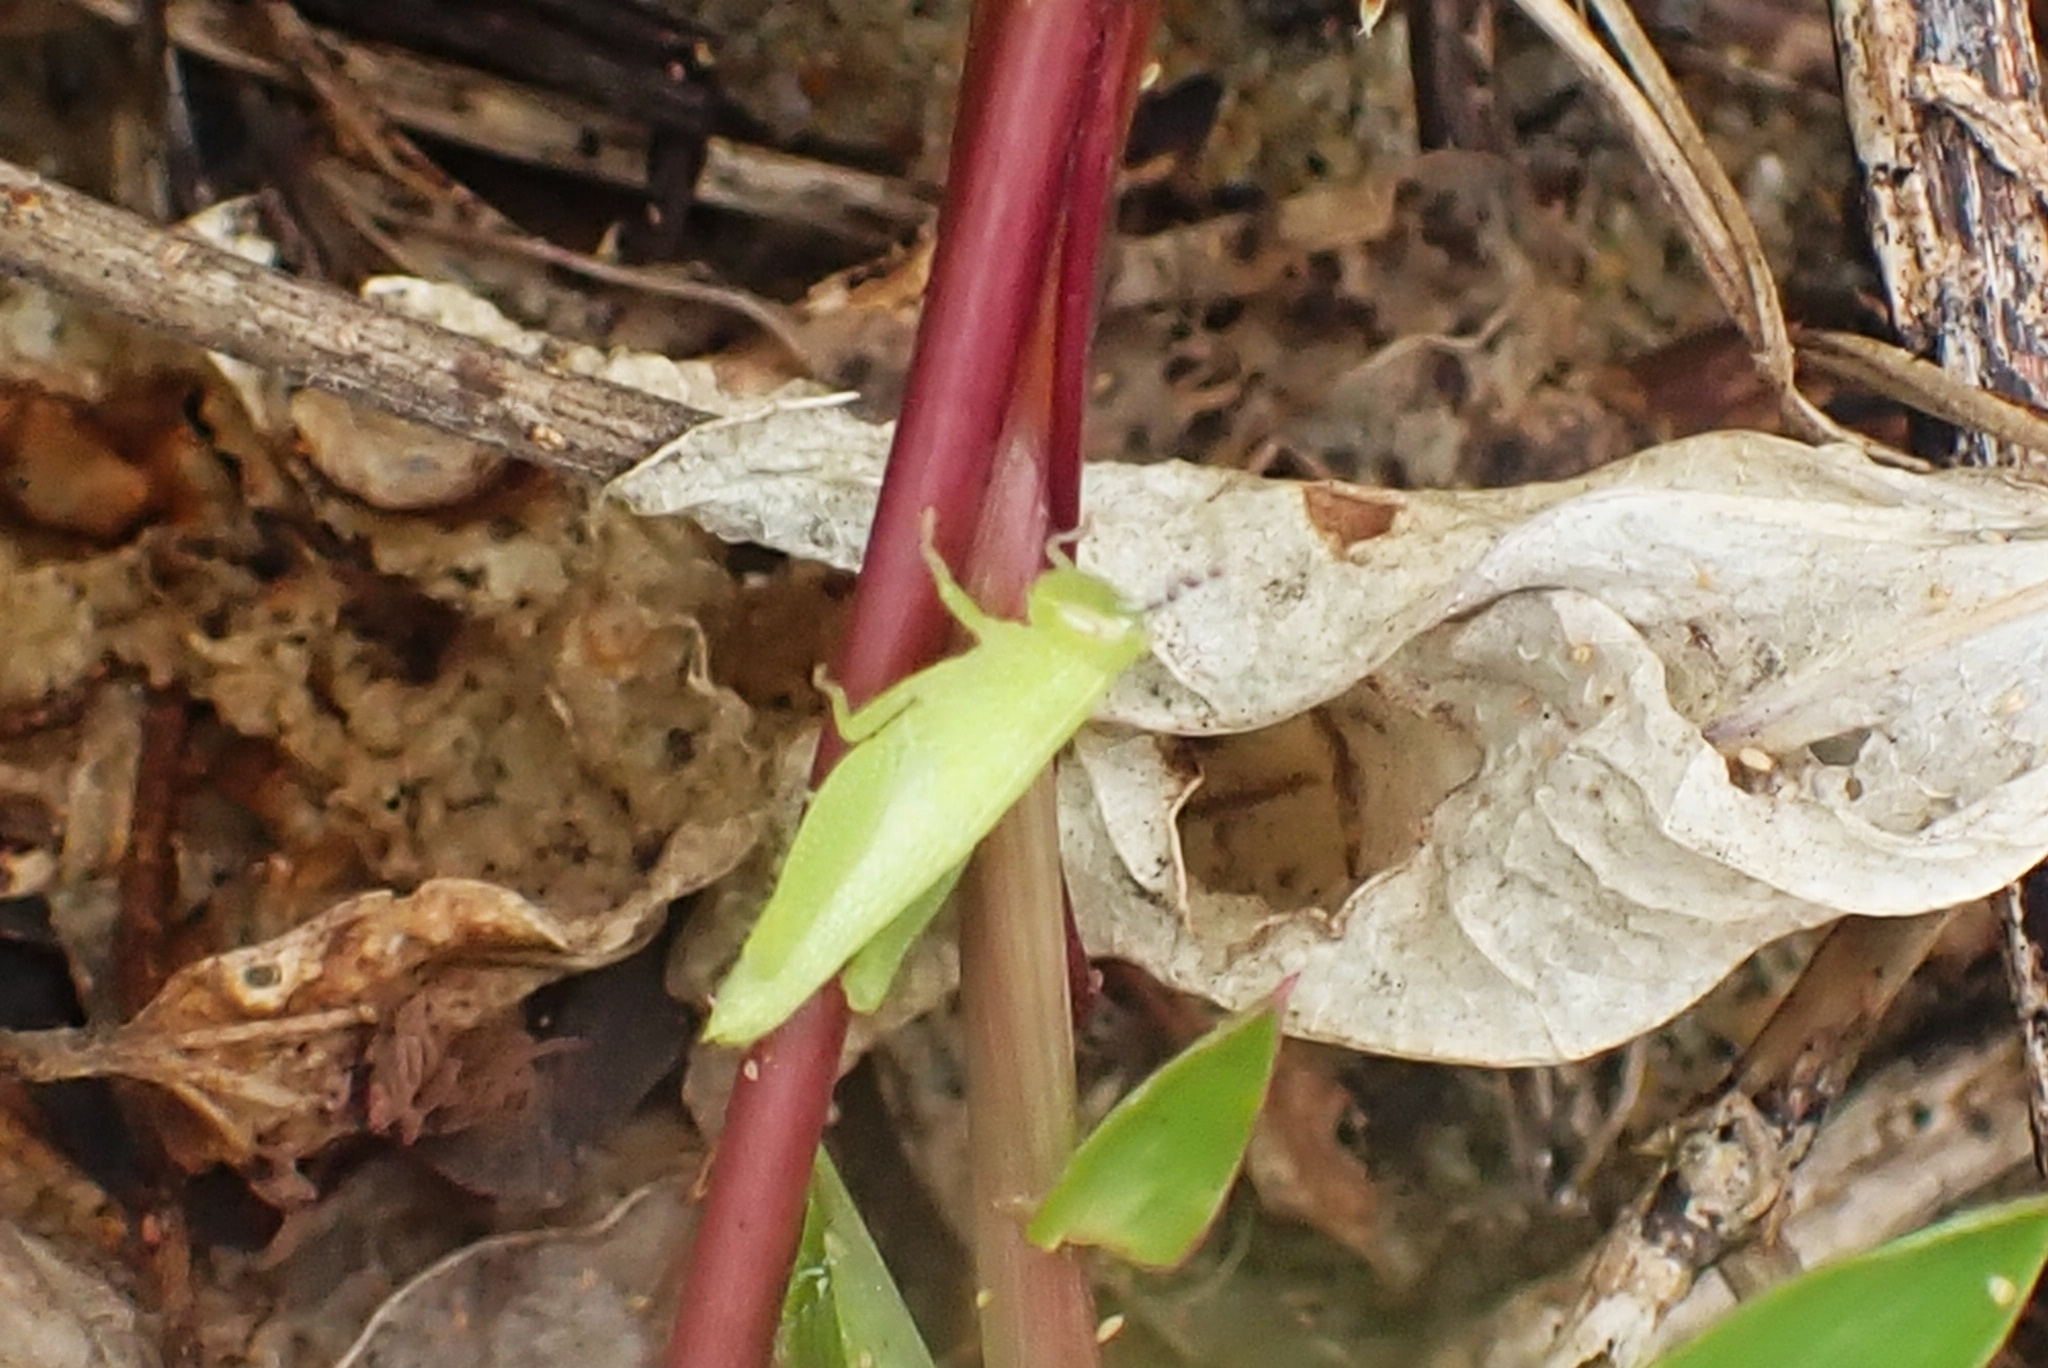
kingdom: Animalia
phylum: Arthropoda
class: Insecta
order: Orthoptera
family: Acrididae
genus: Pseudoxya
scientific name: Pseudoxya diminuta
